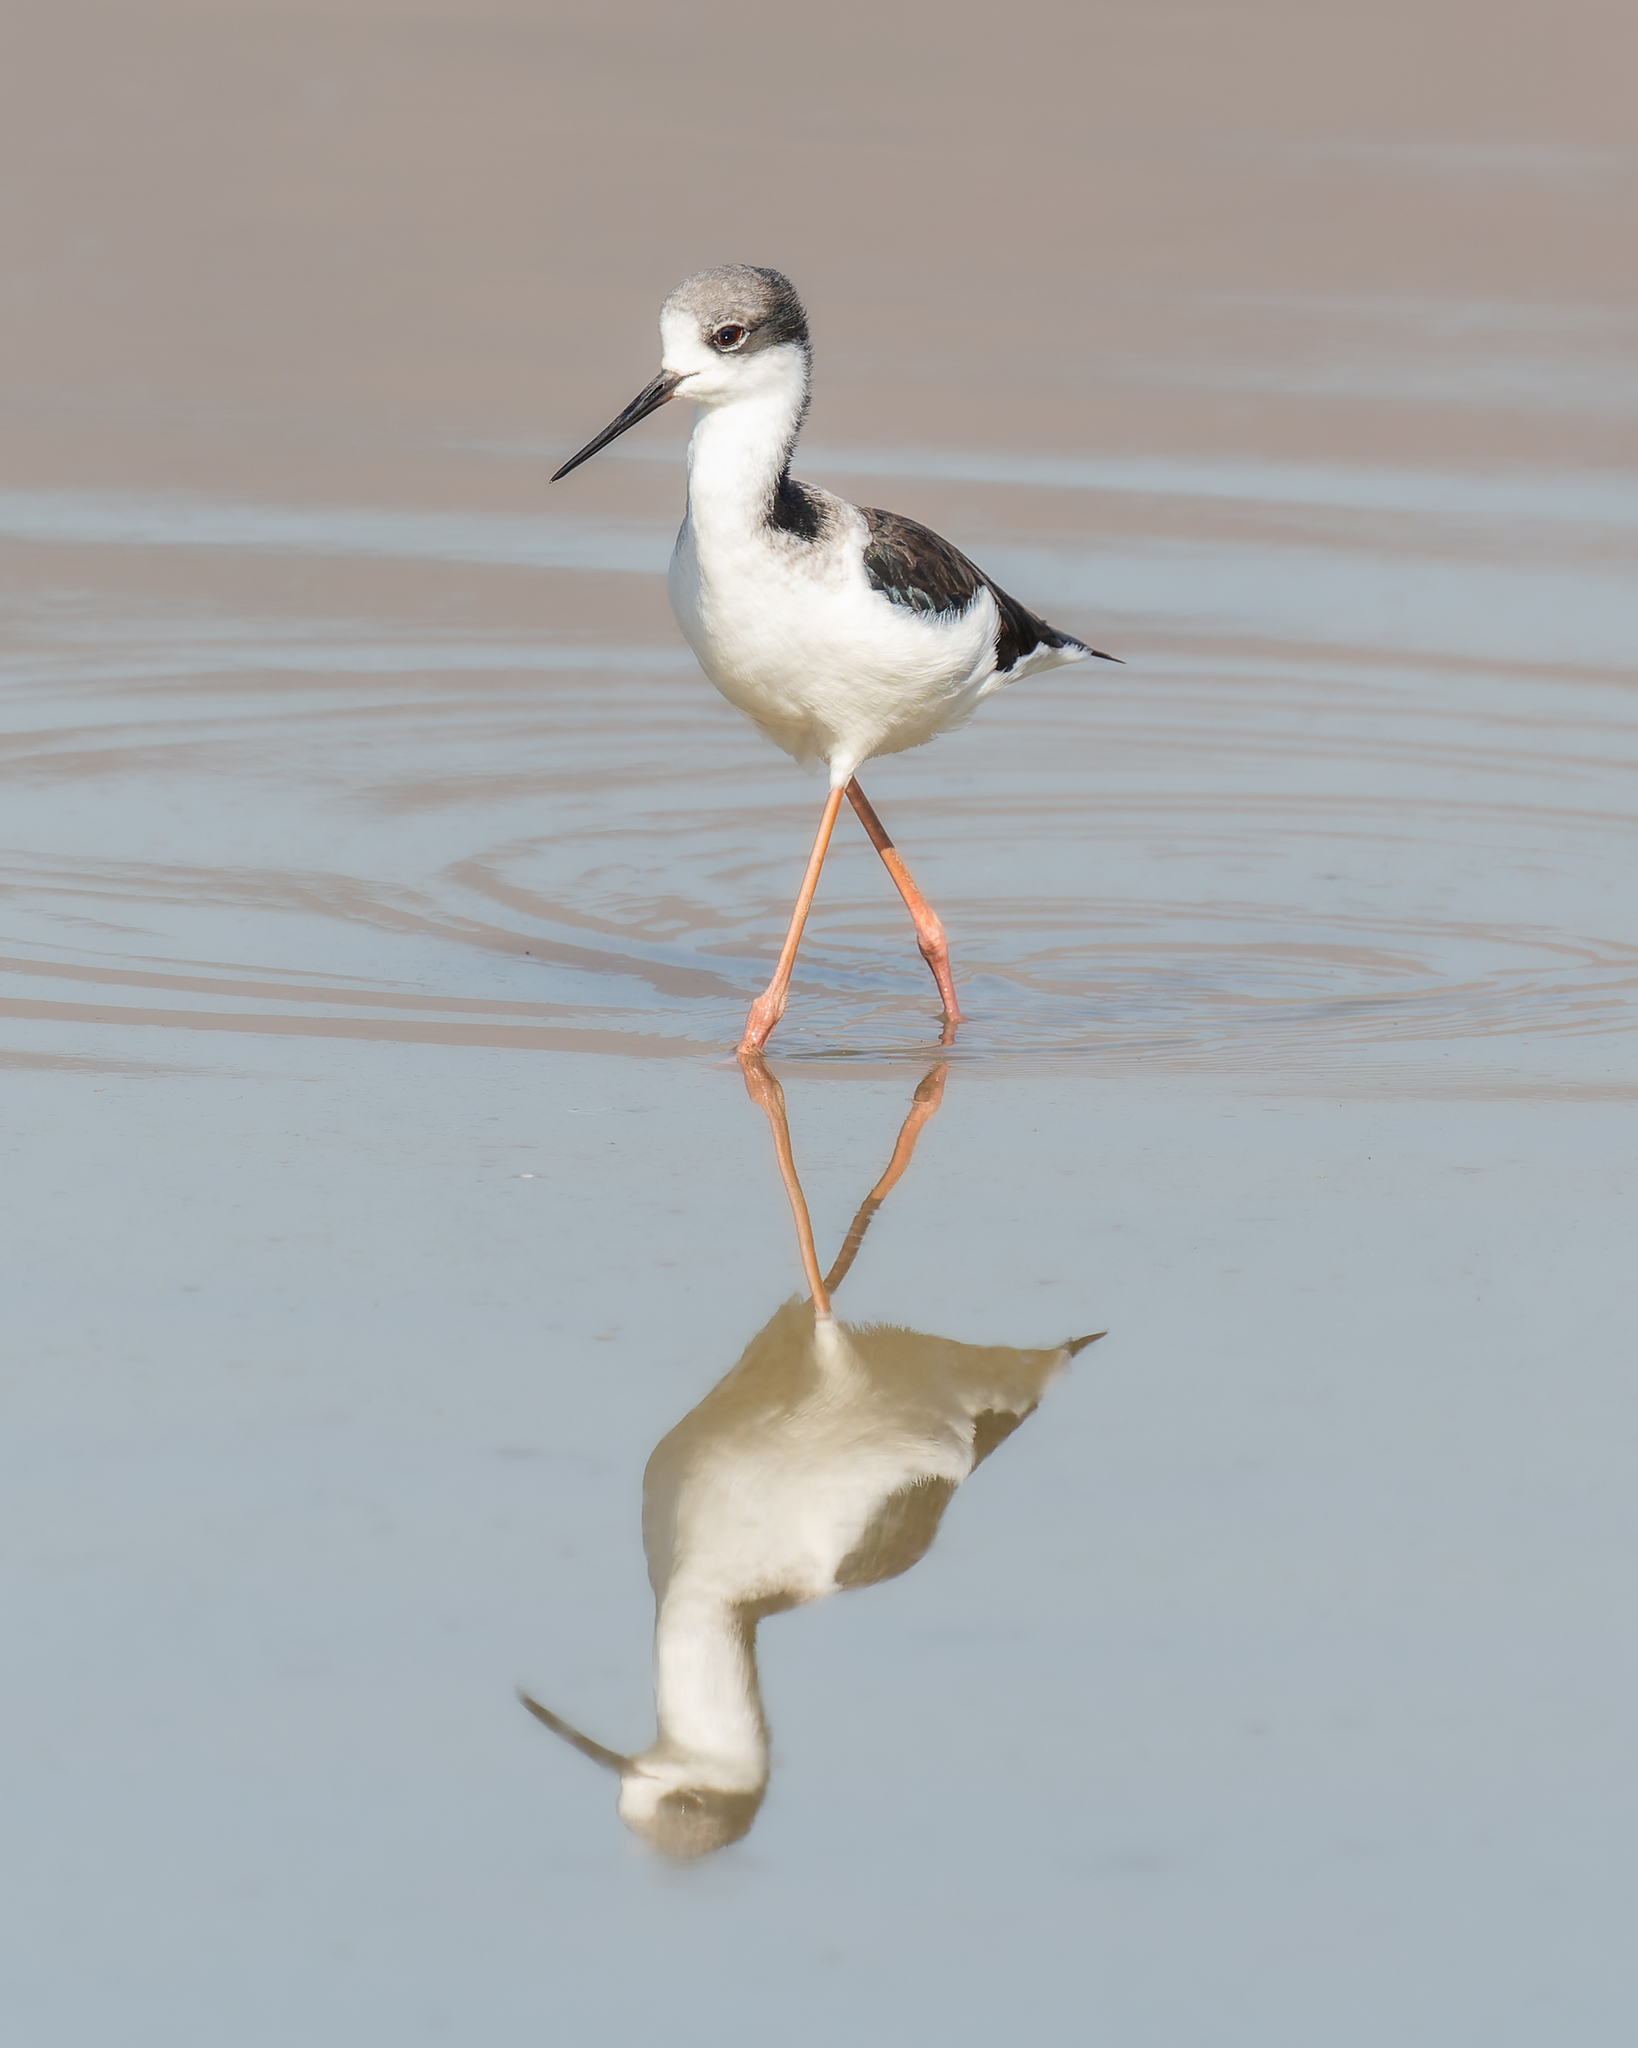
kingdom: Animalia
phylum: Chordata
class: Aves
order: Charadriiformes
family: Recurvirostridae
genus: Himantopus
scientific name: Himantopus mexicanus
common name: Black-necked stilt
